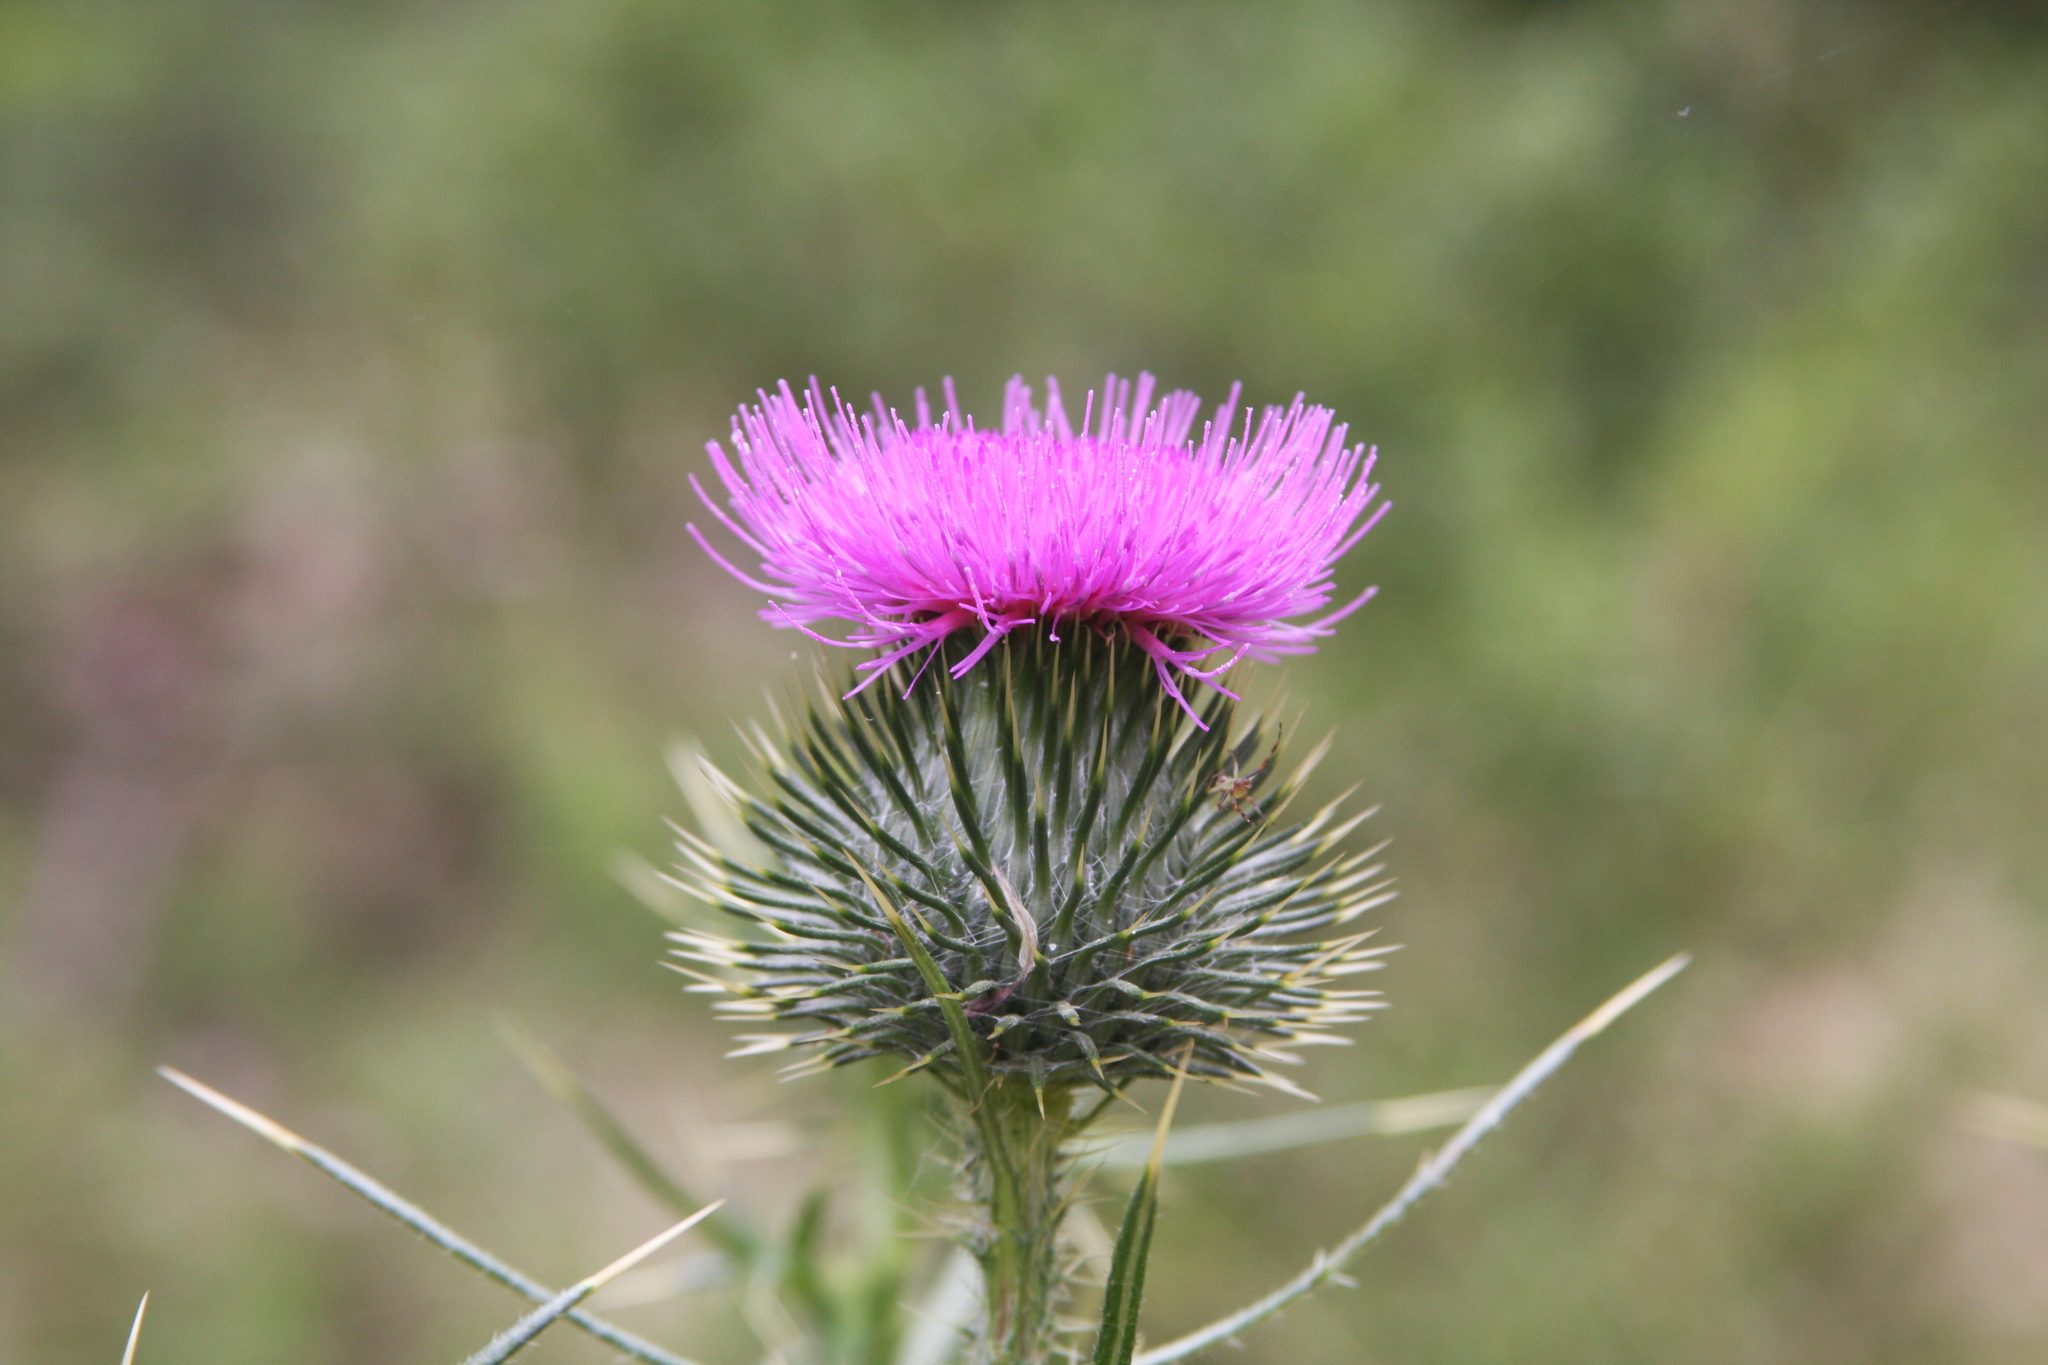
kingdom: Plantae
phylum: Tracheophyta
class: Magnoliopsida
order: Asterales
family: Asteraceae
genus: Cirsium
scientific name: Cirsium vulgare
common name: Bull thistle
